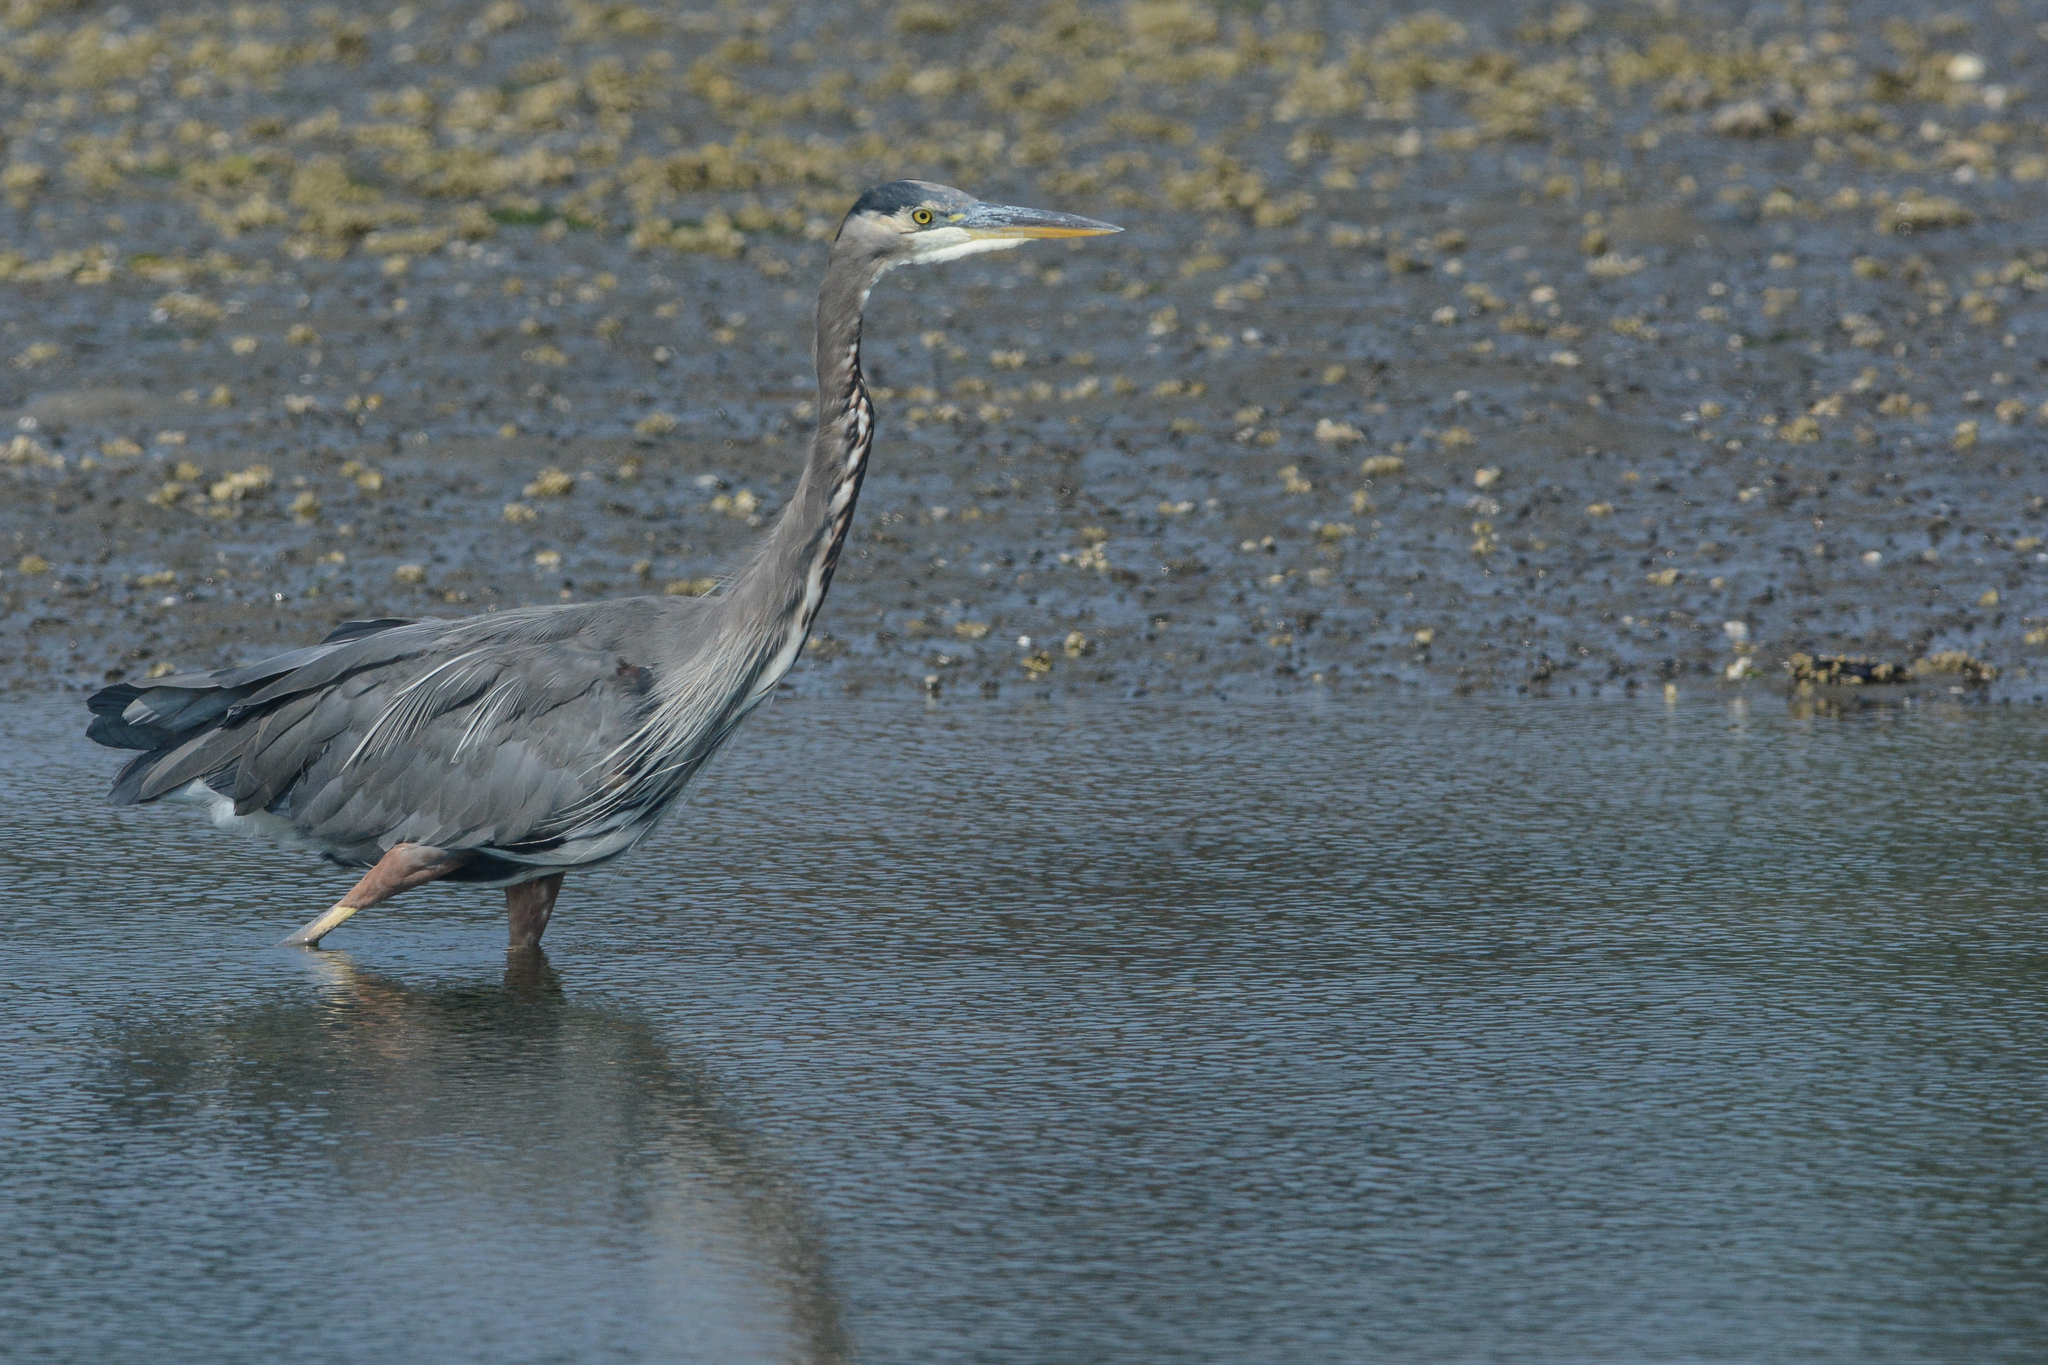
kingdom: Animalia
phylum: Chordata
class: Aves
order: Pelecaniformes
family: Ardeidae
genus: Ardea
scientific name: Ardea herodias
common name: Great blue heron
